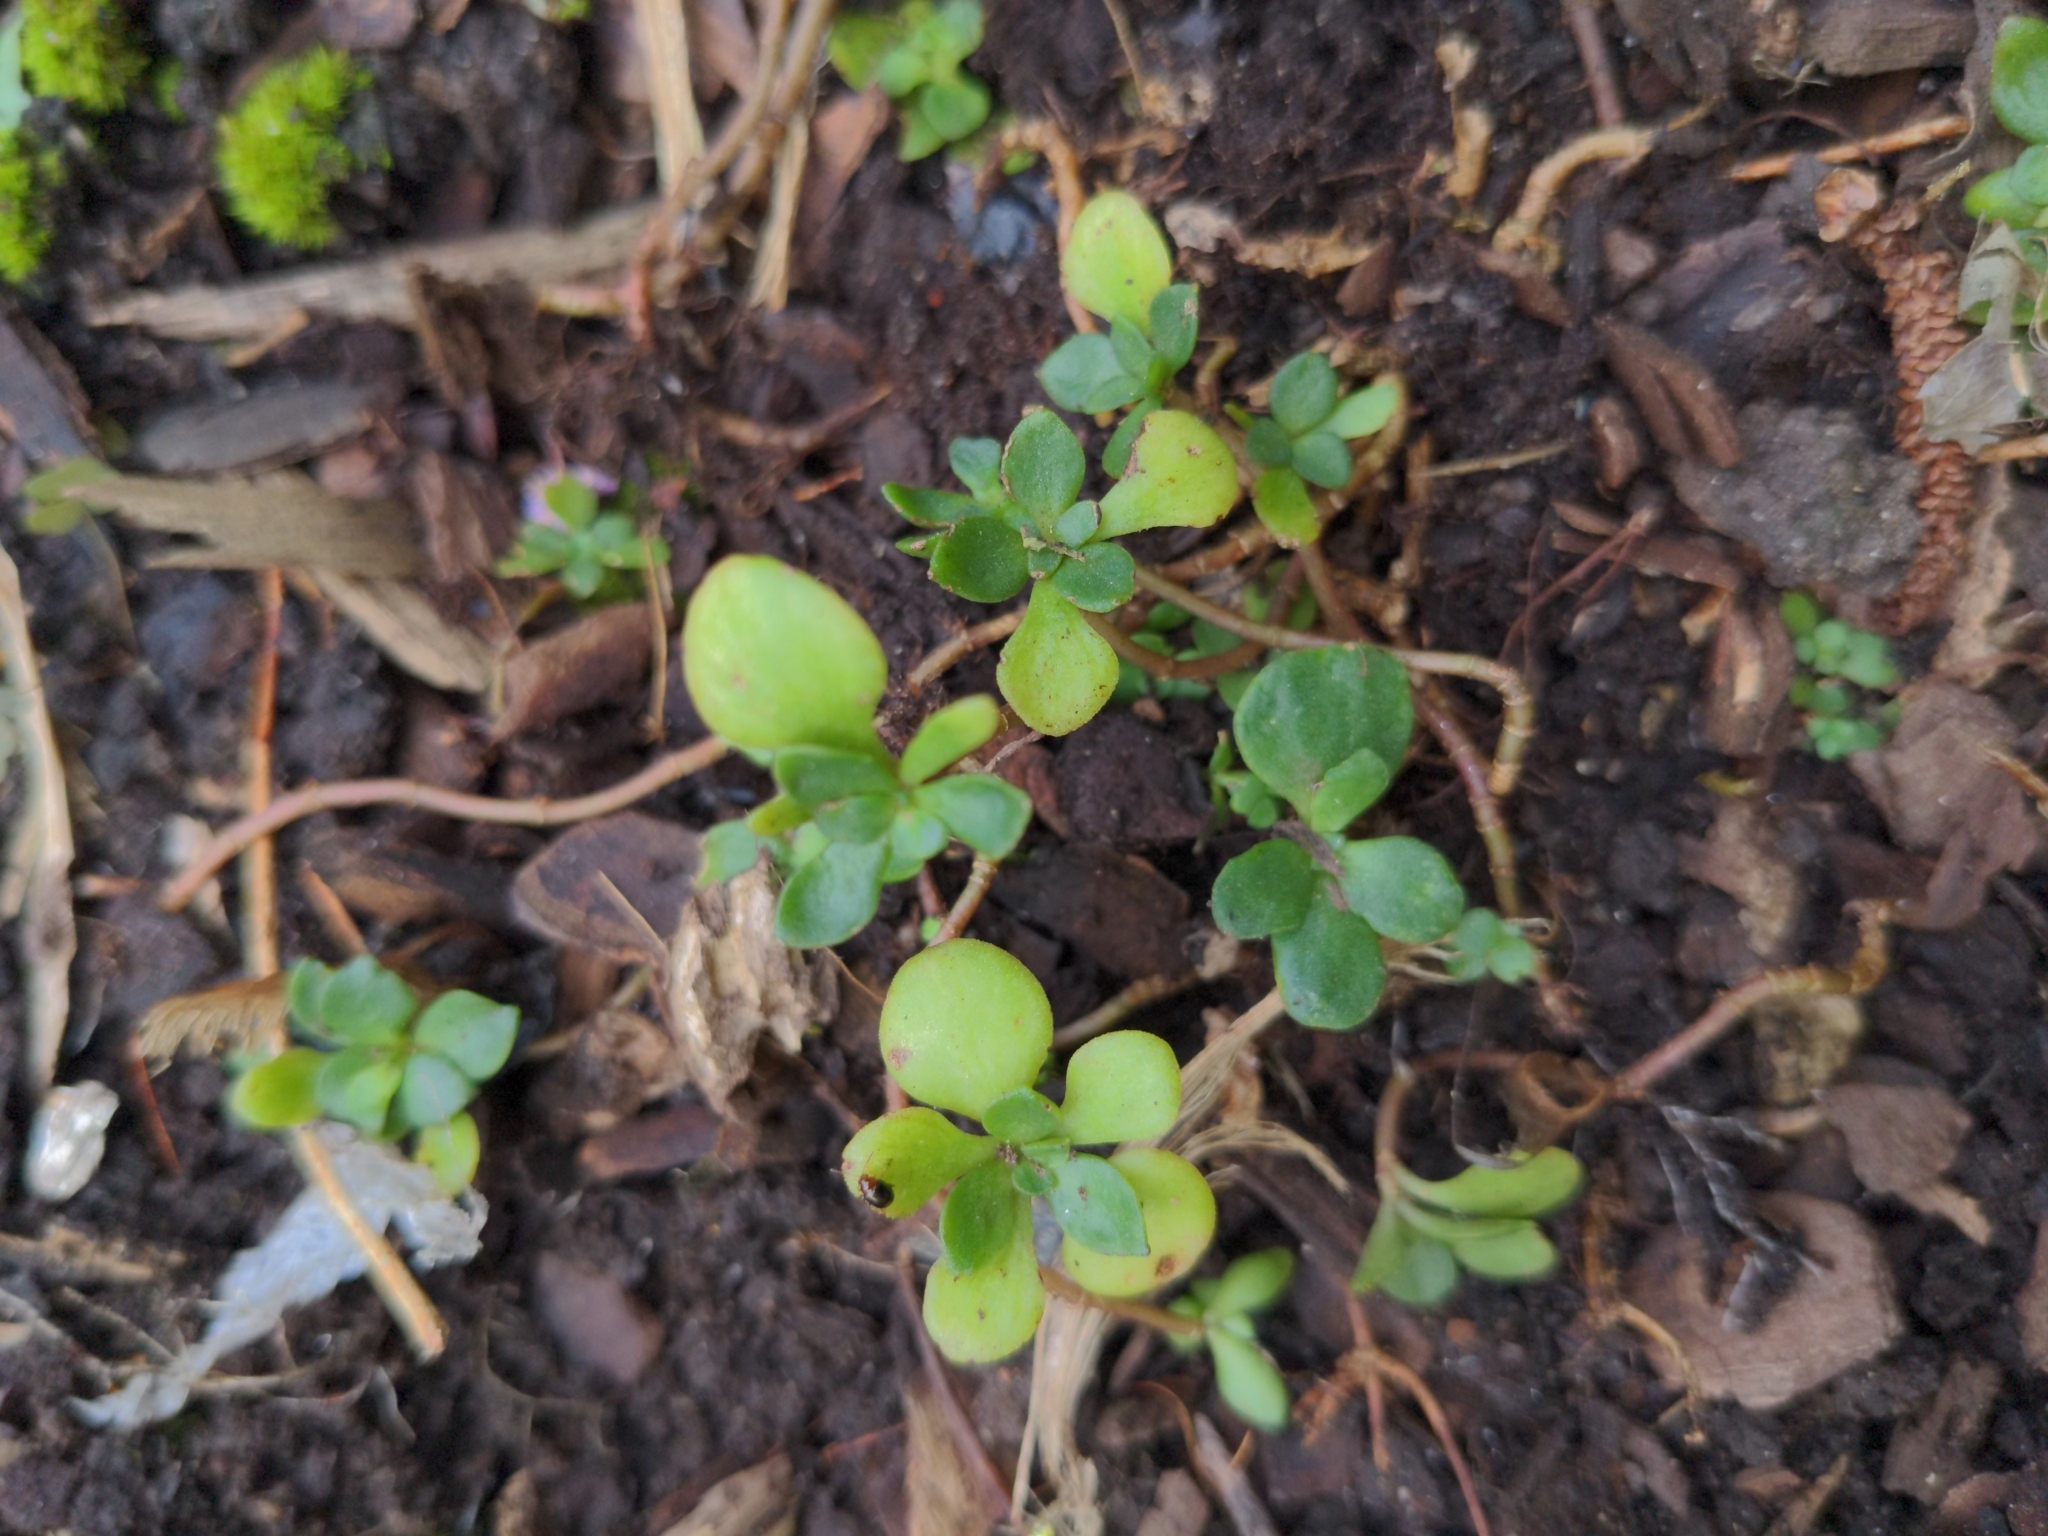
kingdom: Plantae
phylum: Tracheophyta
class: Magnoliopsida
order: Saxifragales
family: Crassulaceae
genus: Sedum
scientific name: Sedum ternatum
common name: Wild stonecrop
